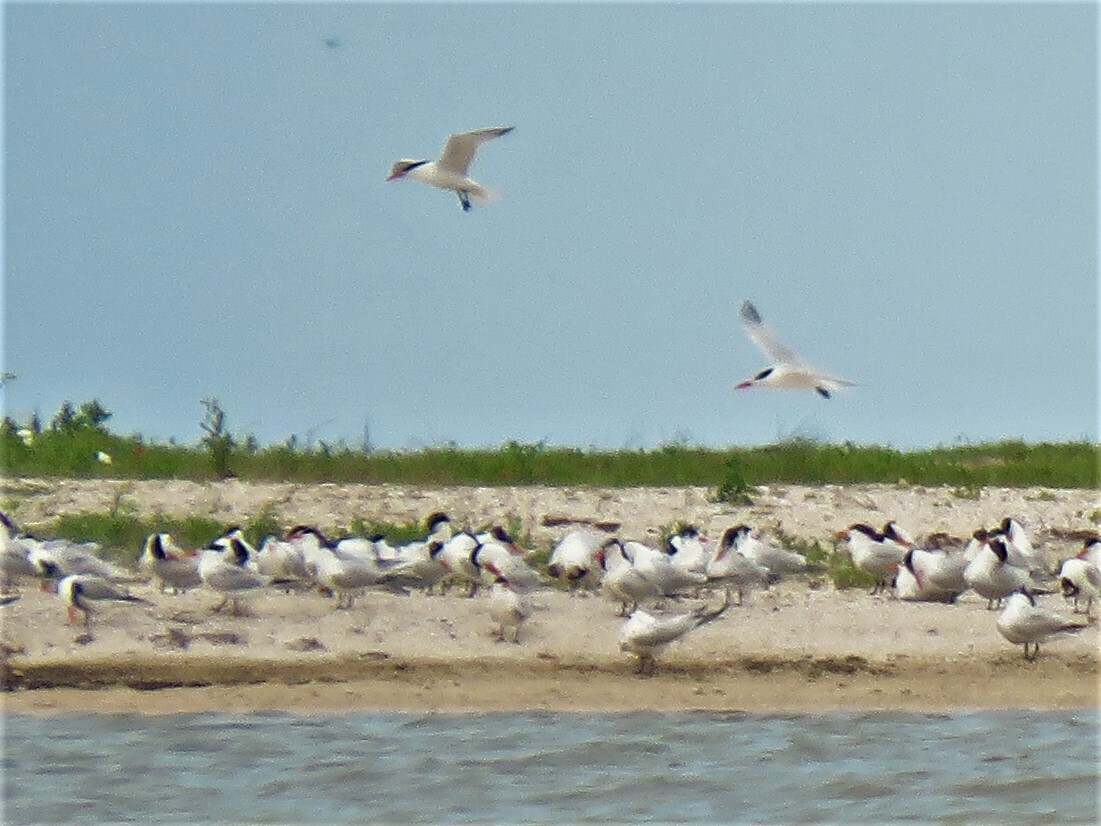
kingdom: Animalia
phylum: Chordata
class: Aves
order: Charadriiformes
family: Laridae
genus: Thalasseus
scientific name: Thalasseus maximus
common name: Royal tern
